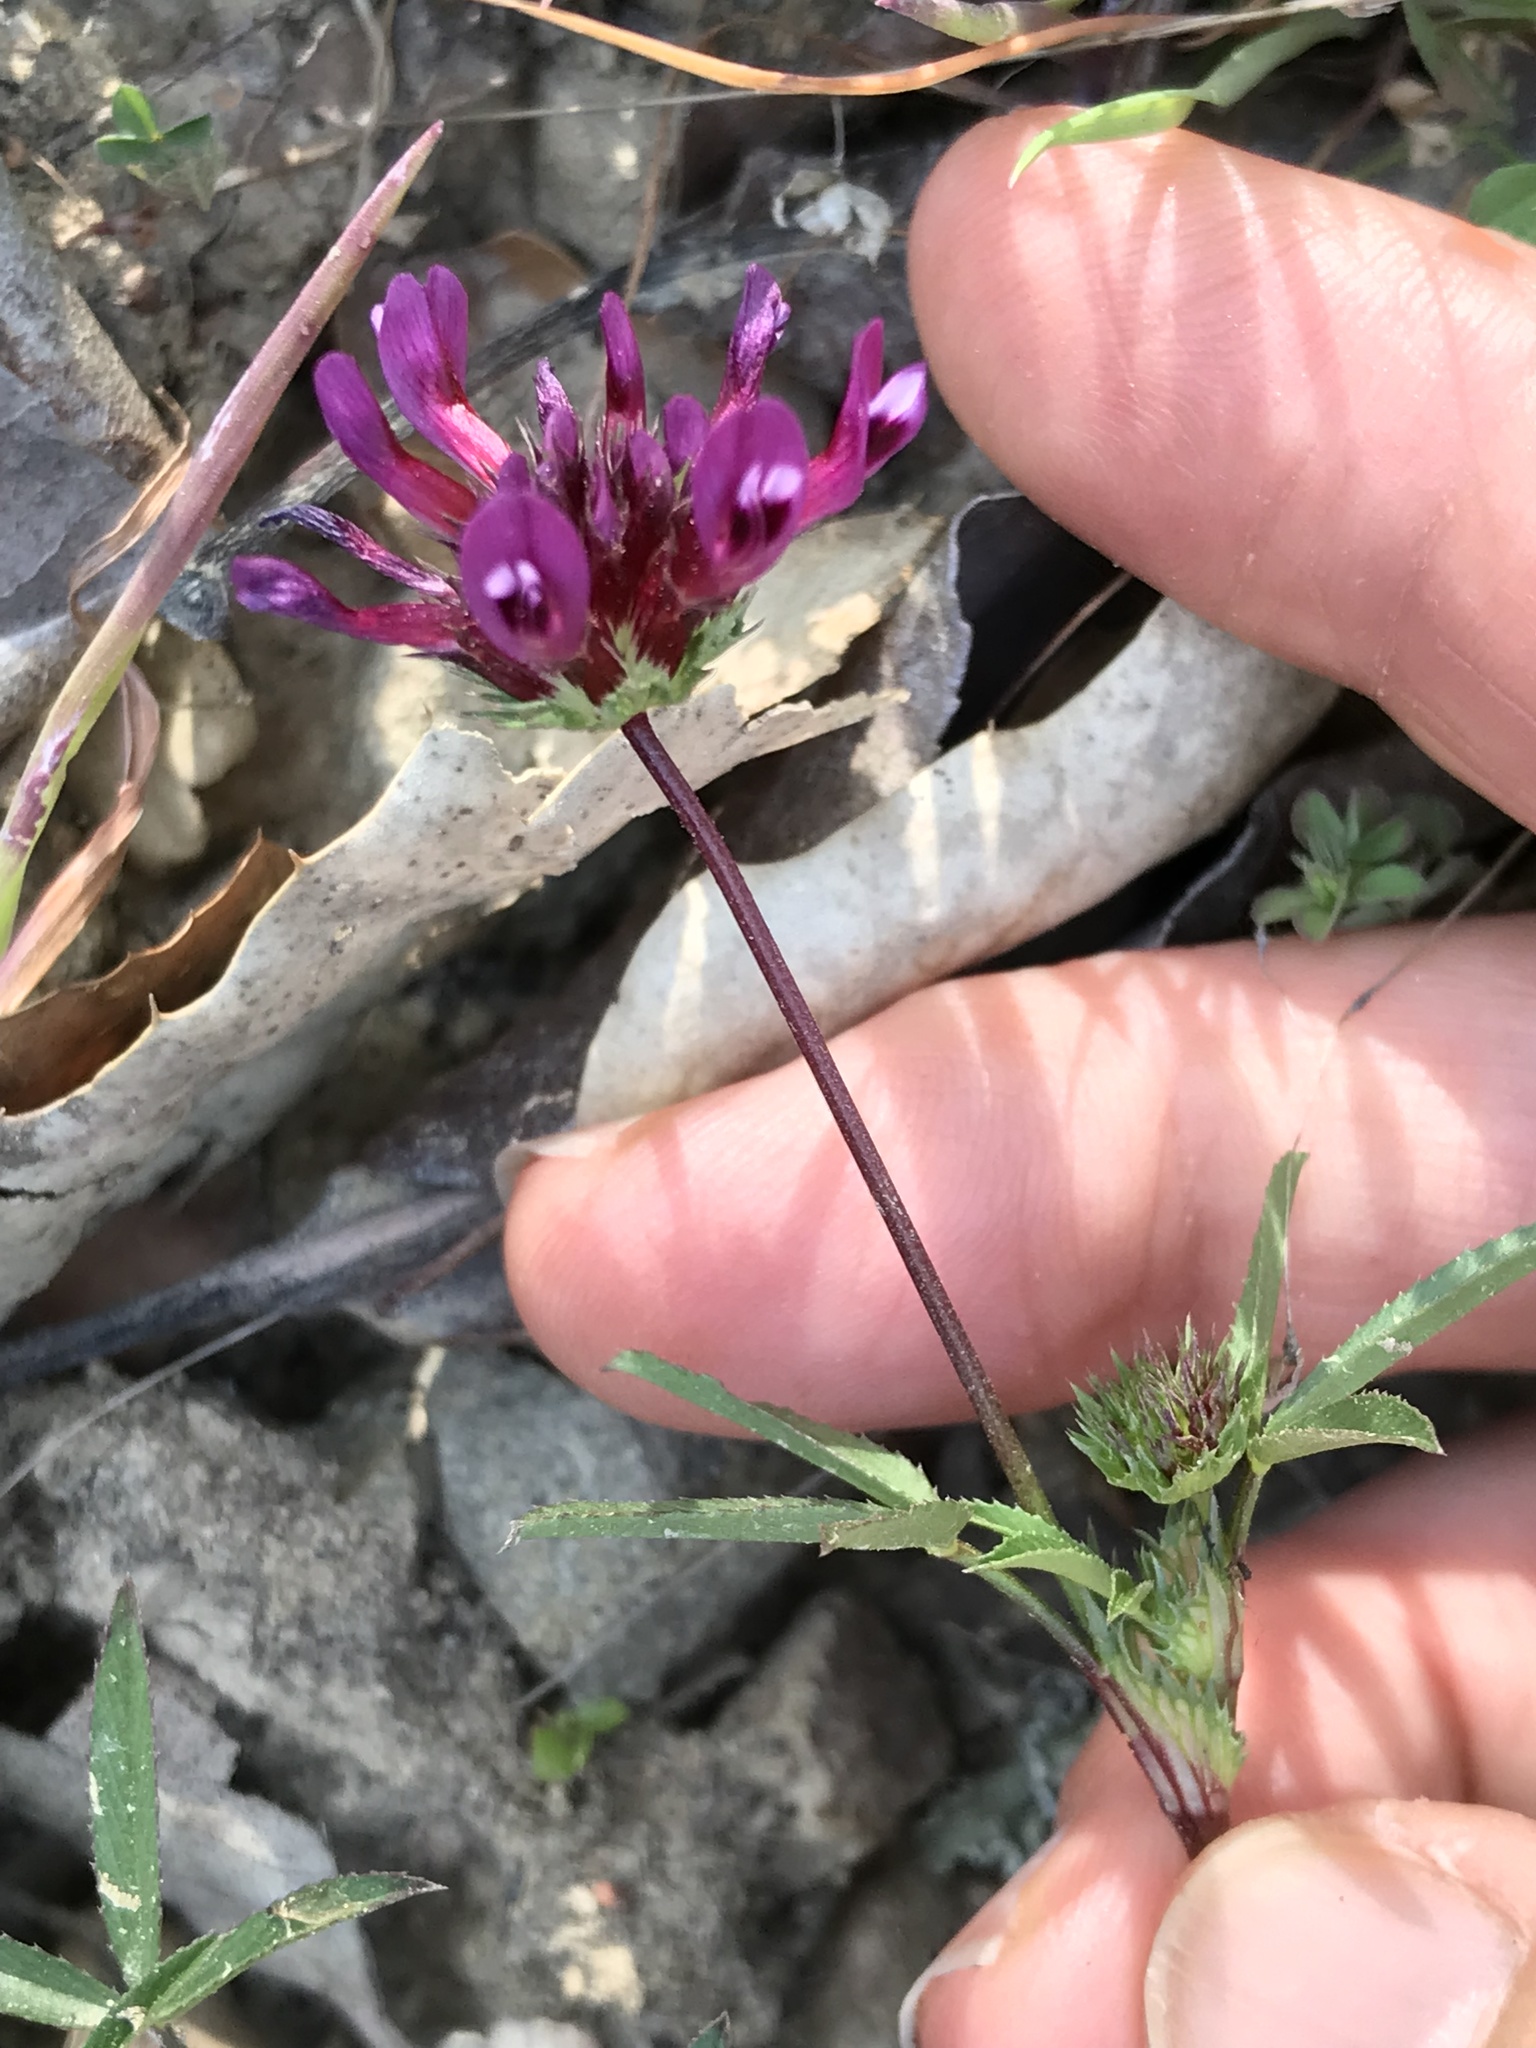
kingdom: Plantae
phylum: Tracheophyta
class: Magnoliopsida
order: Fabales
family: Fabaceae
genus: Trifolium
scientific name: Trifolium willdenovii
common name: Tomcat clover
